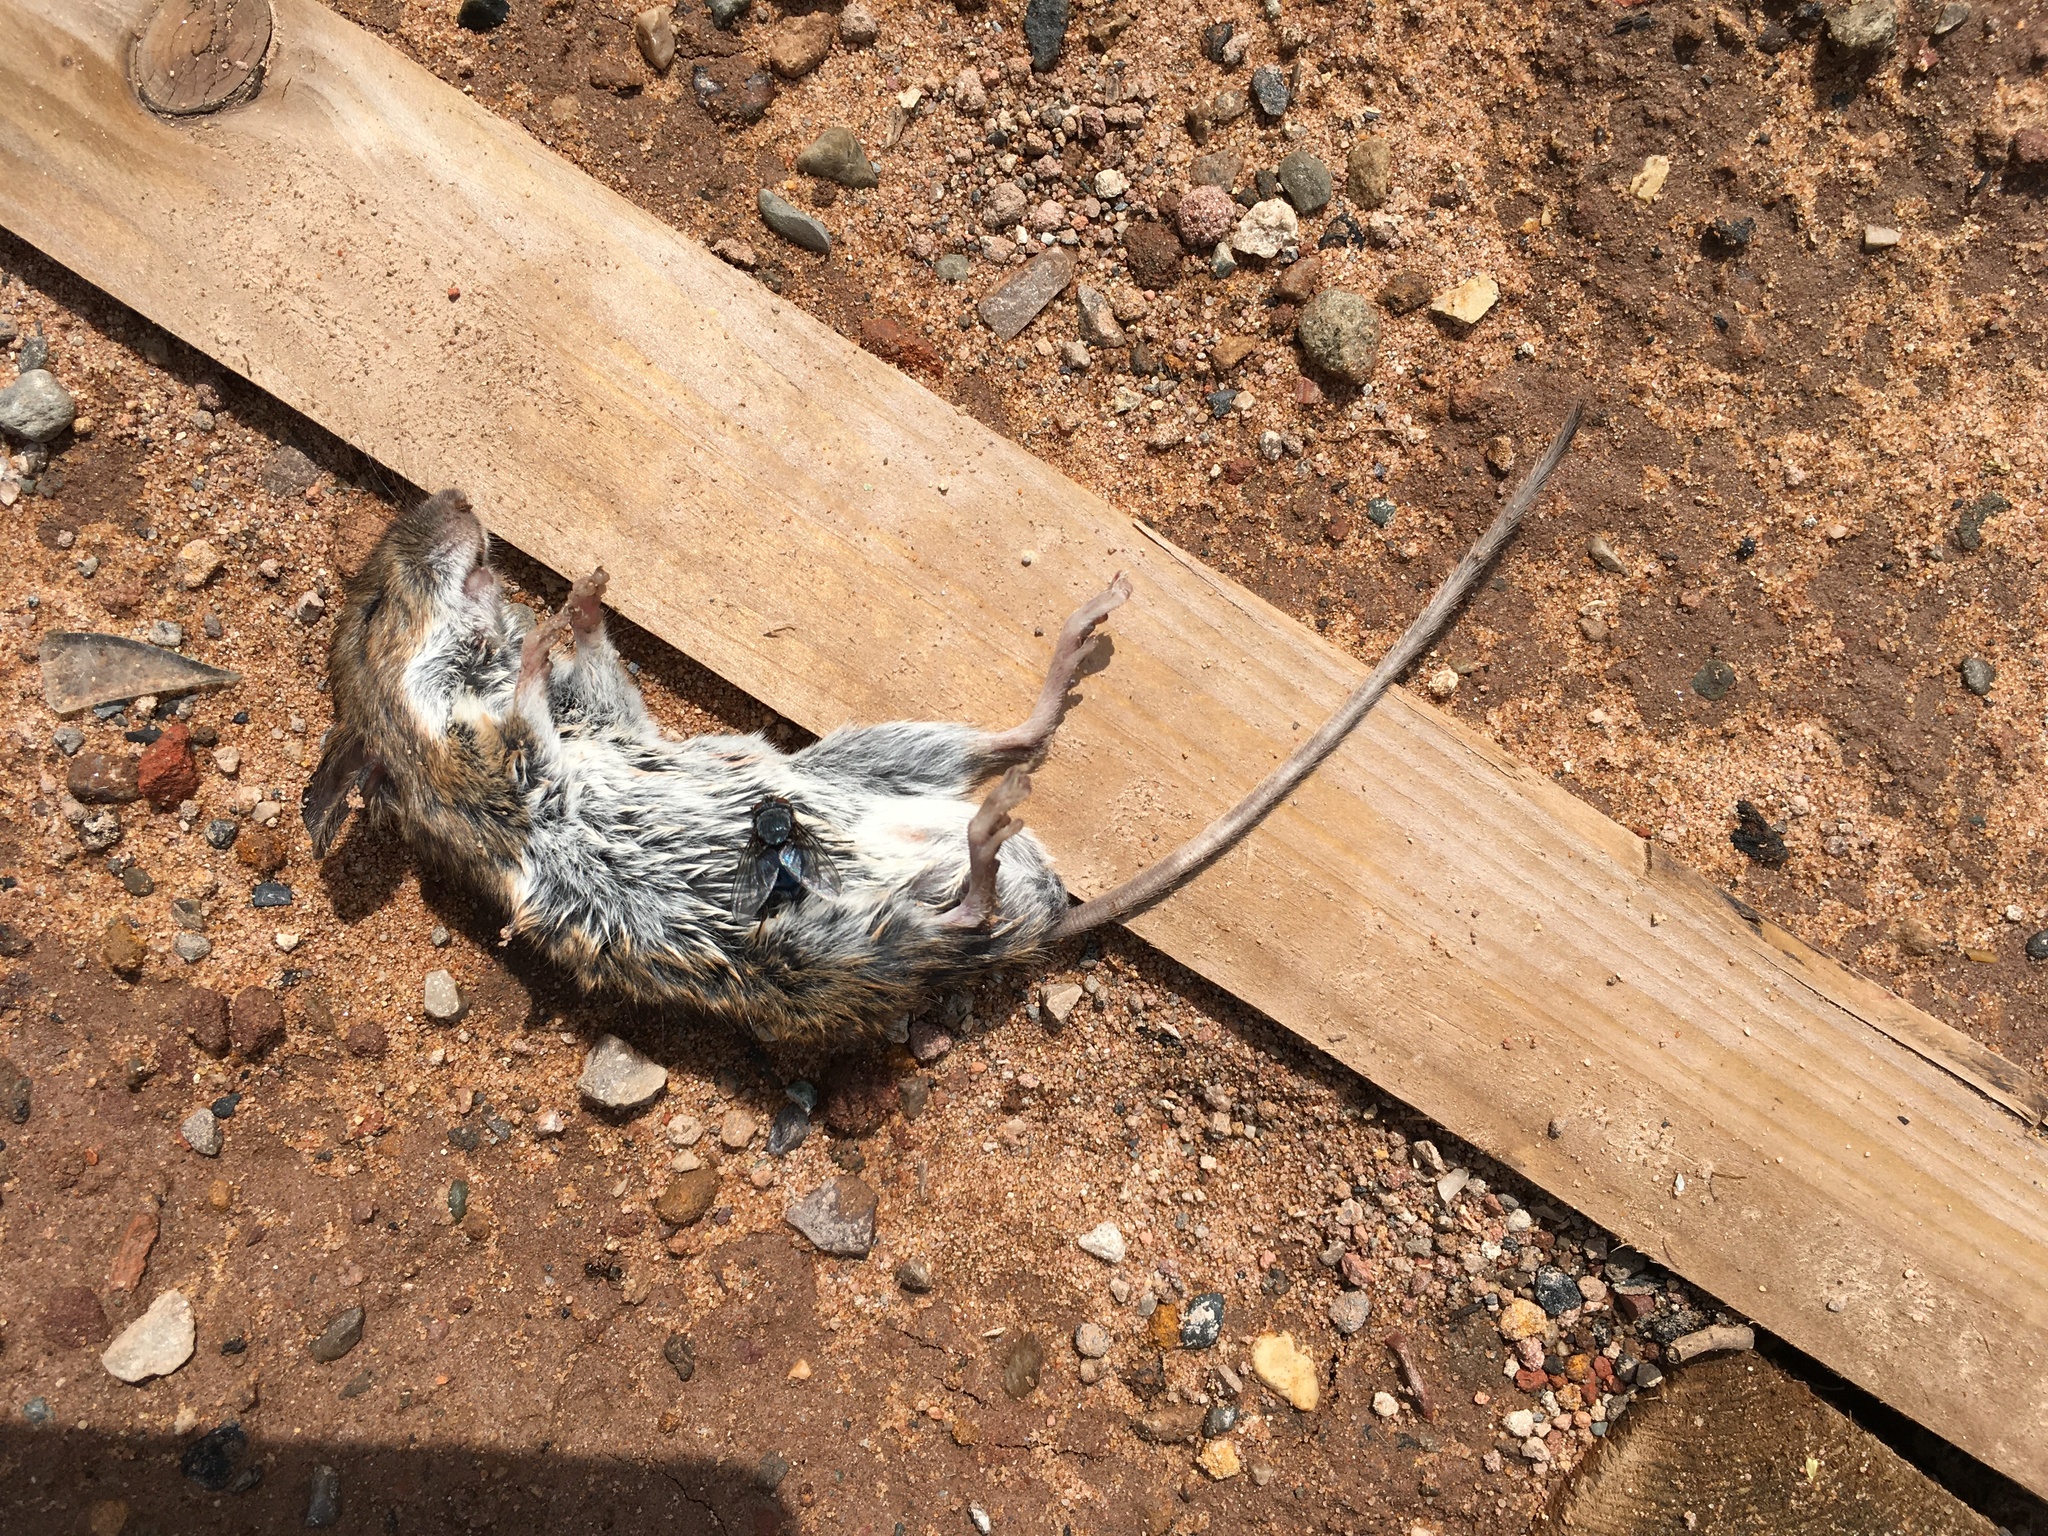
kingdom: Animalia
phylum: Chordata
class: Mammalia
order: Rodentia
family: Muridae
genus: Apodemus
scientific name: Apodemus sylvaticus
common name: Wood mouse
